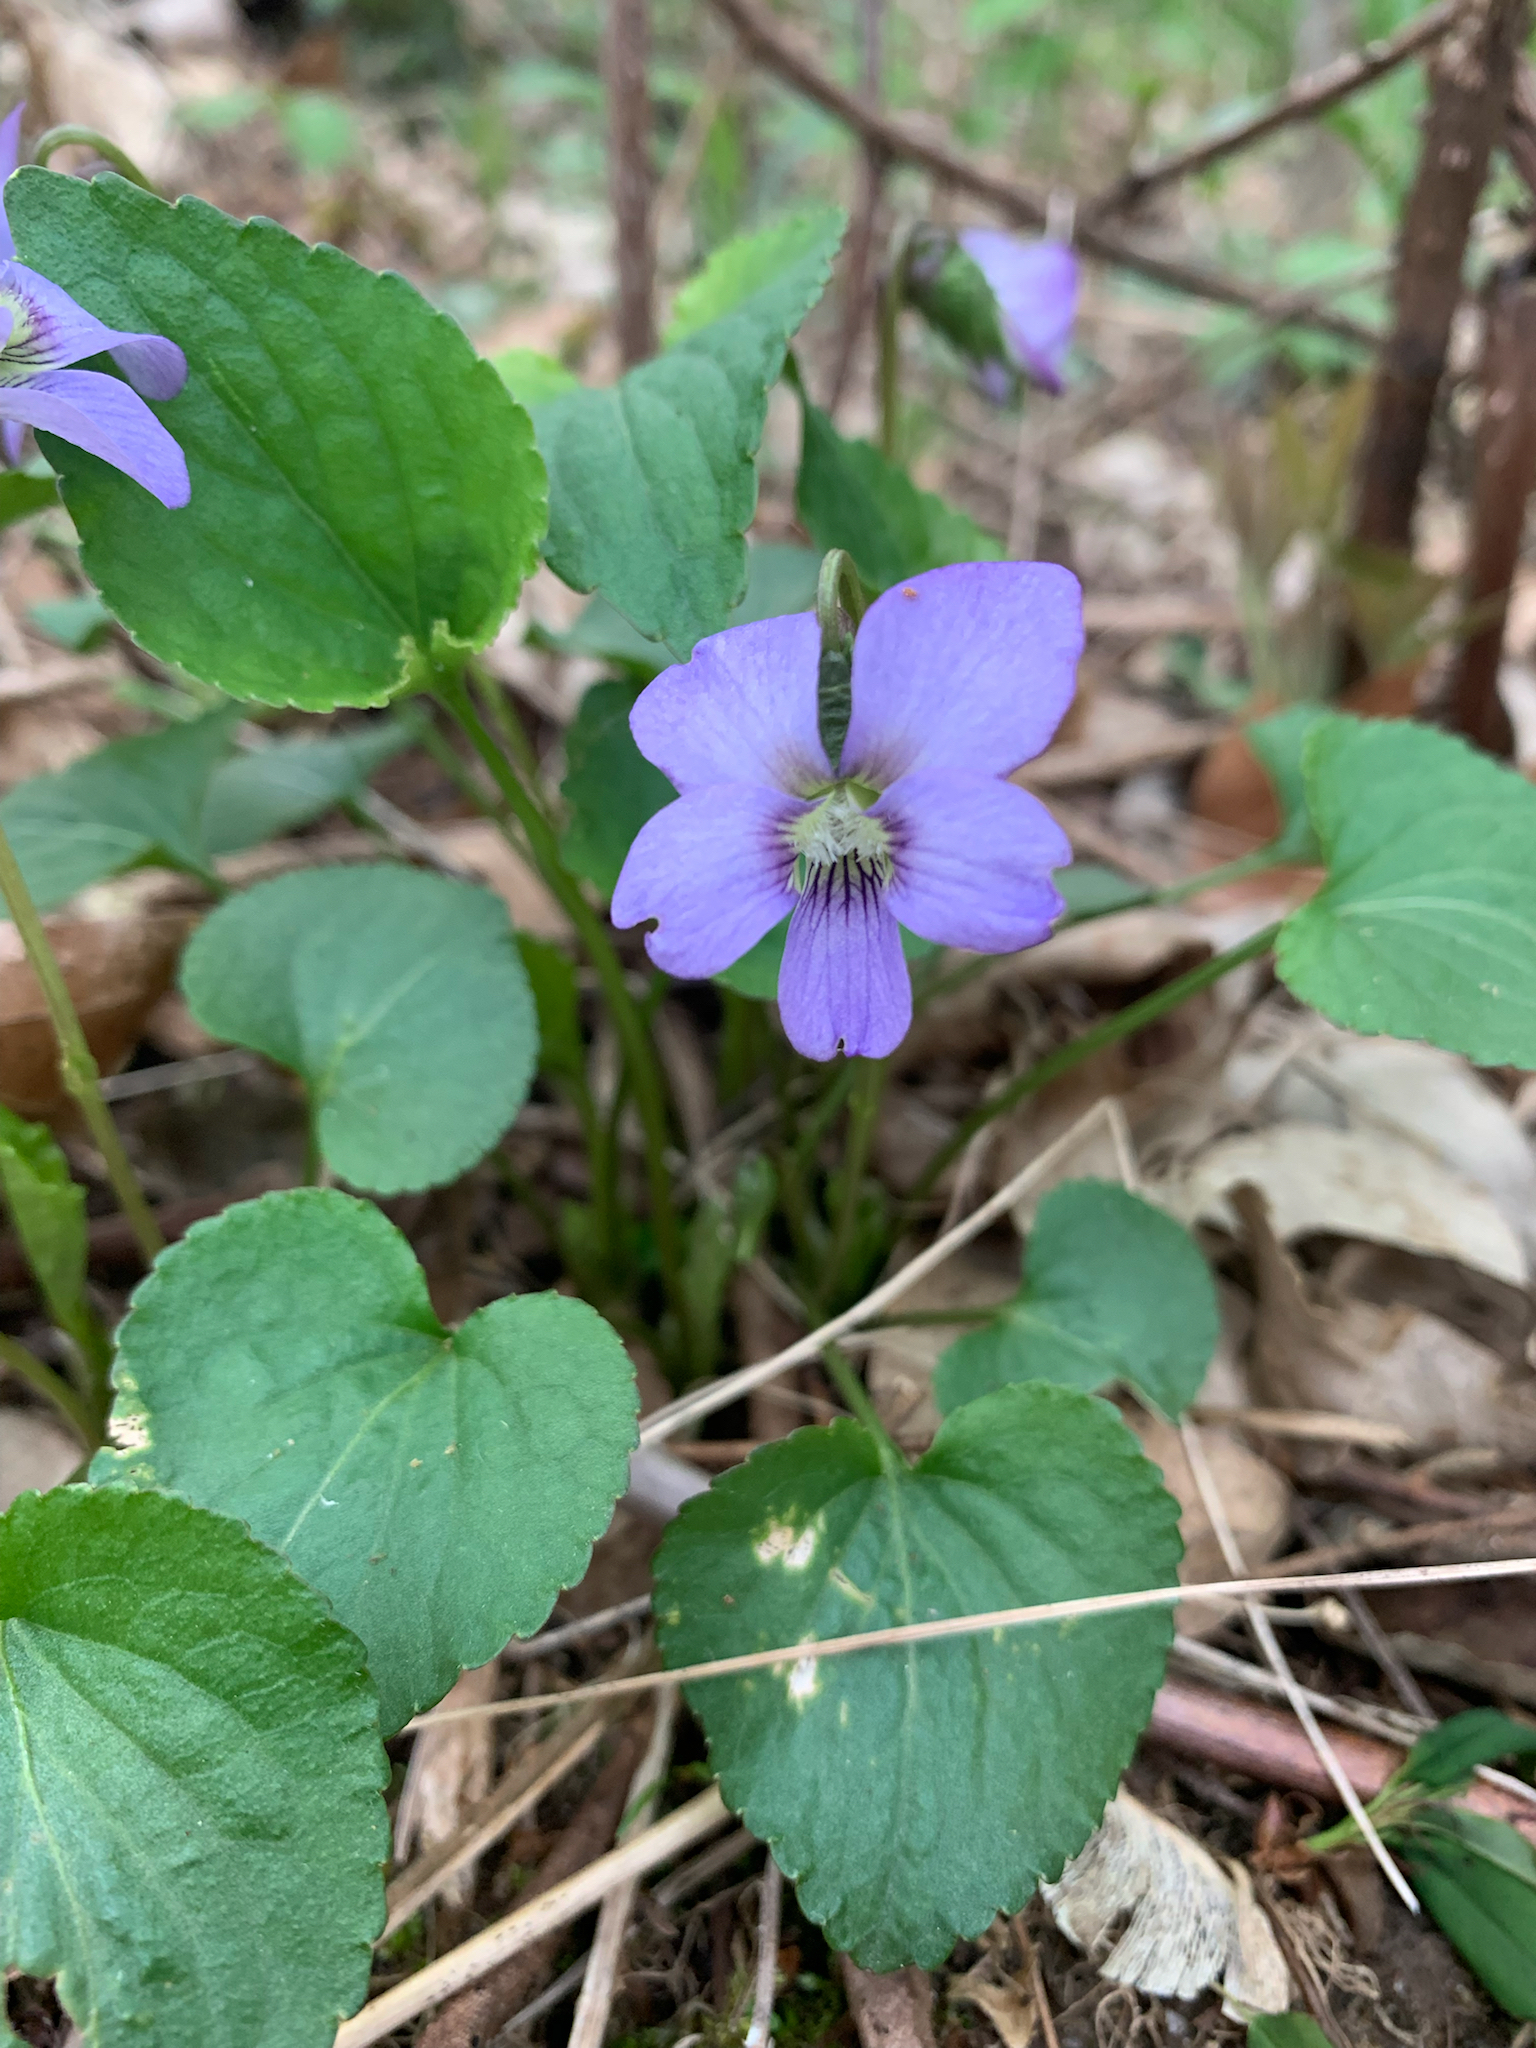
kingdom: Plantae
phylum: Tracheophyta
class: Magnoliopsida
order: Malpighiales
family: Violaceae
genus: Viola
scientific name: Viola sororia
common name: Dooryard violet
